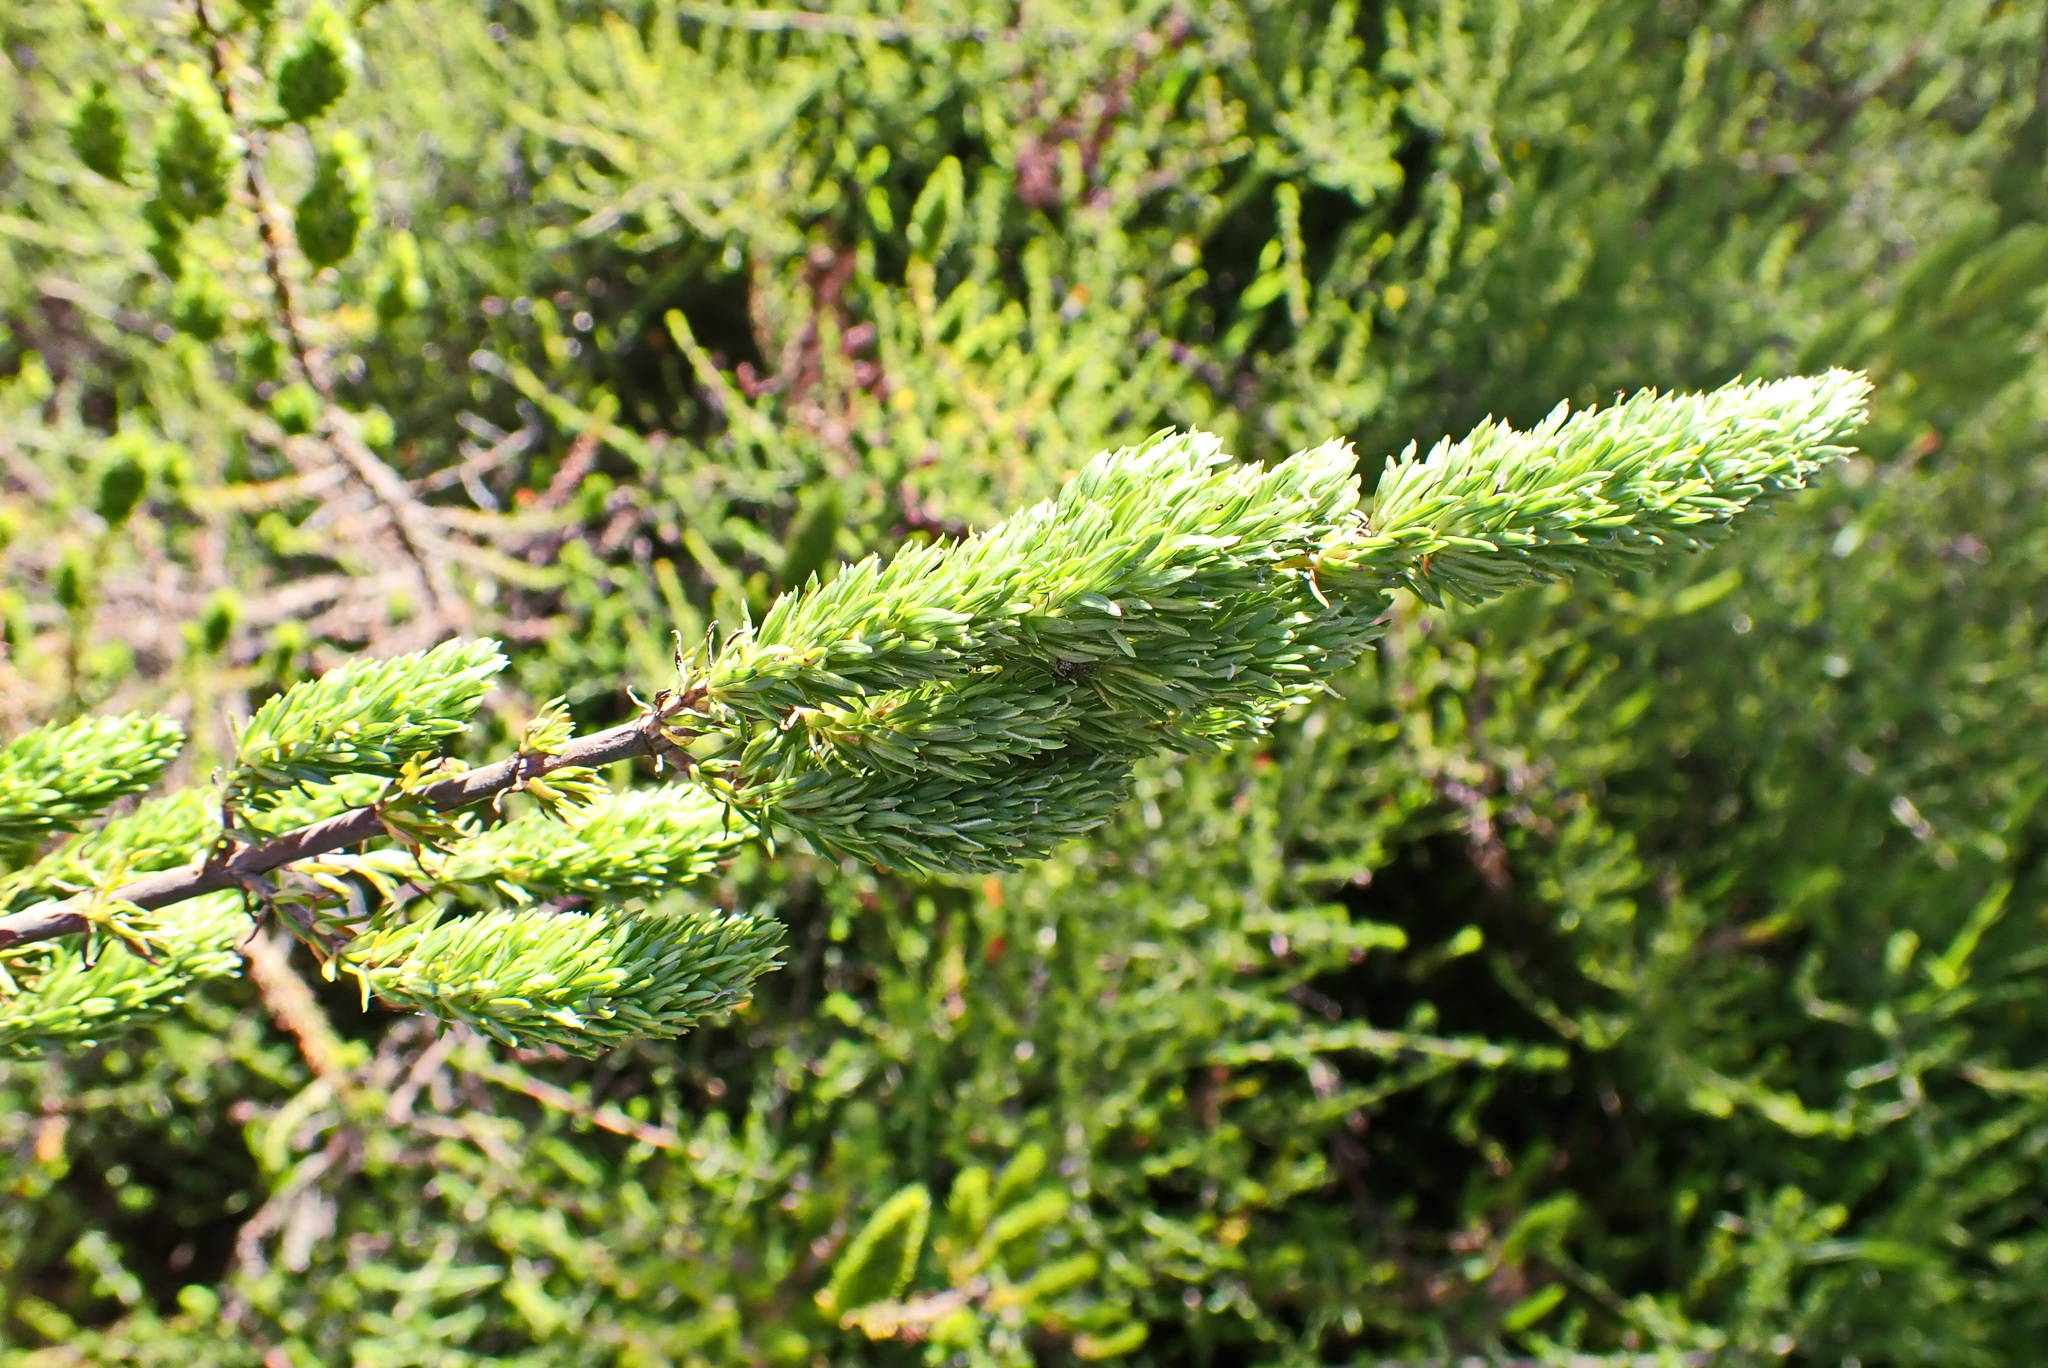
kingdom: Plantae
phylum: Tracheophyta
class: Magnoliopsida
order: Gentianales
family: Rubiaceae
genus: Anthospermum
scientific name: Anthospermum aethiopicum
